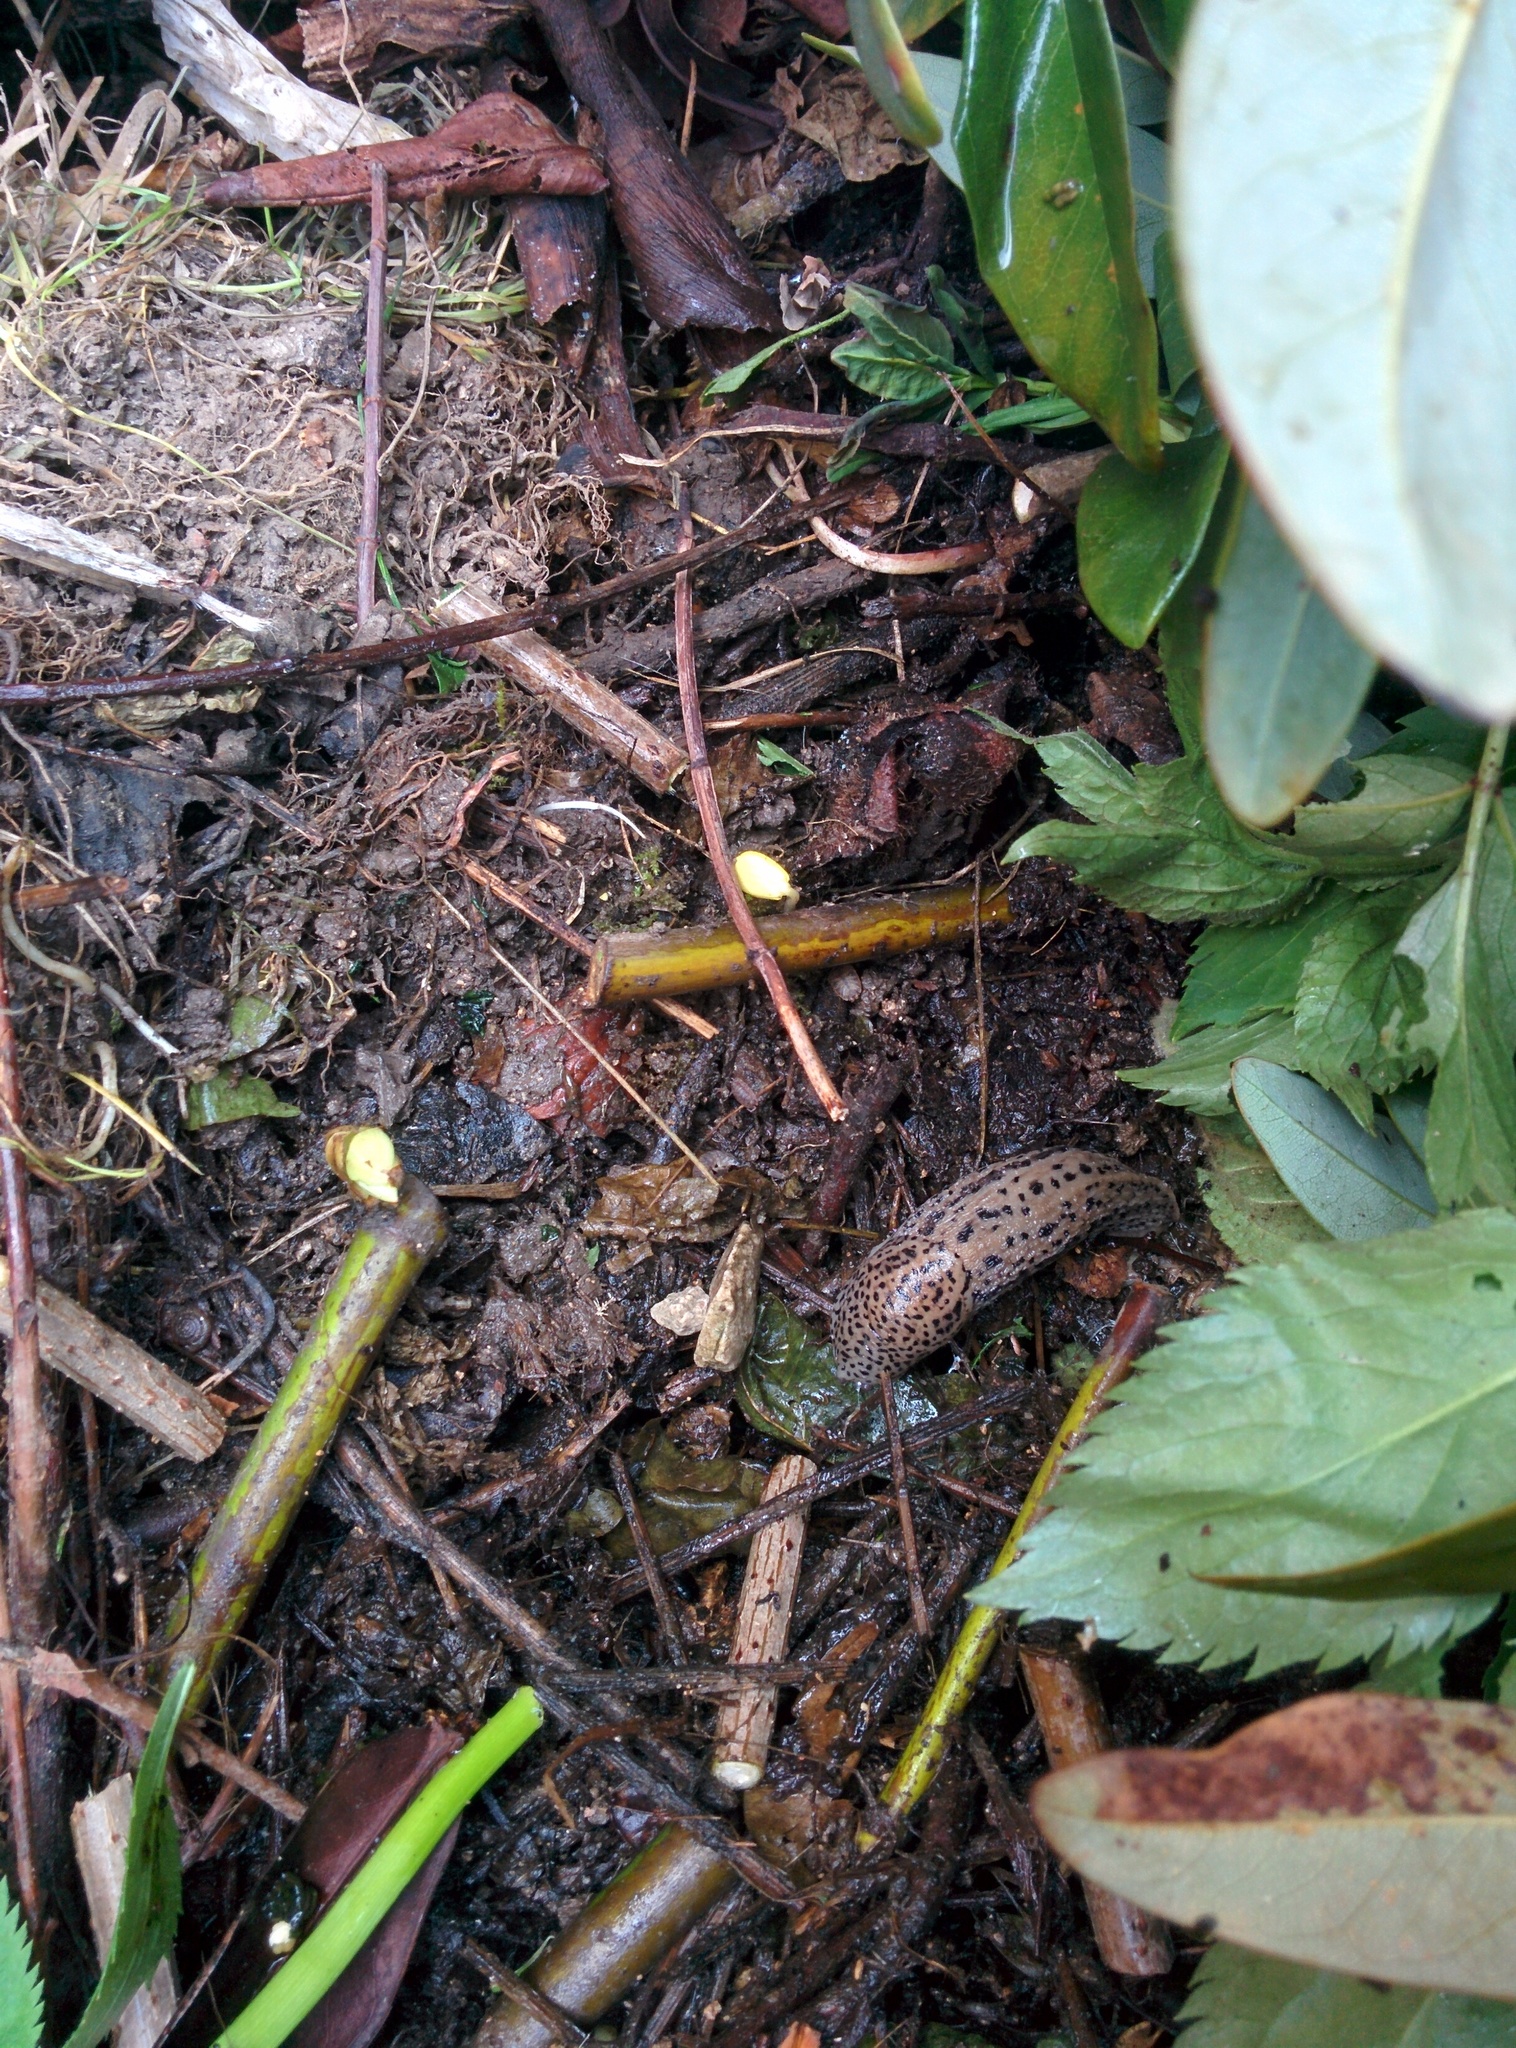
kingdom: Animalia
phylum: Mollusca
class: Gastropoda
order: Stylommatophora
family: Limacidae
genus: Limax
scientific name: Limax maximus
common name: Great grey slug
